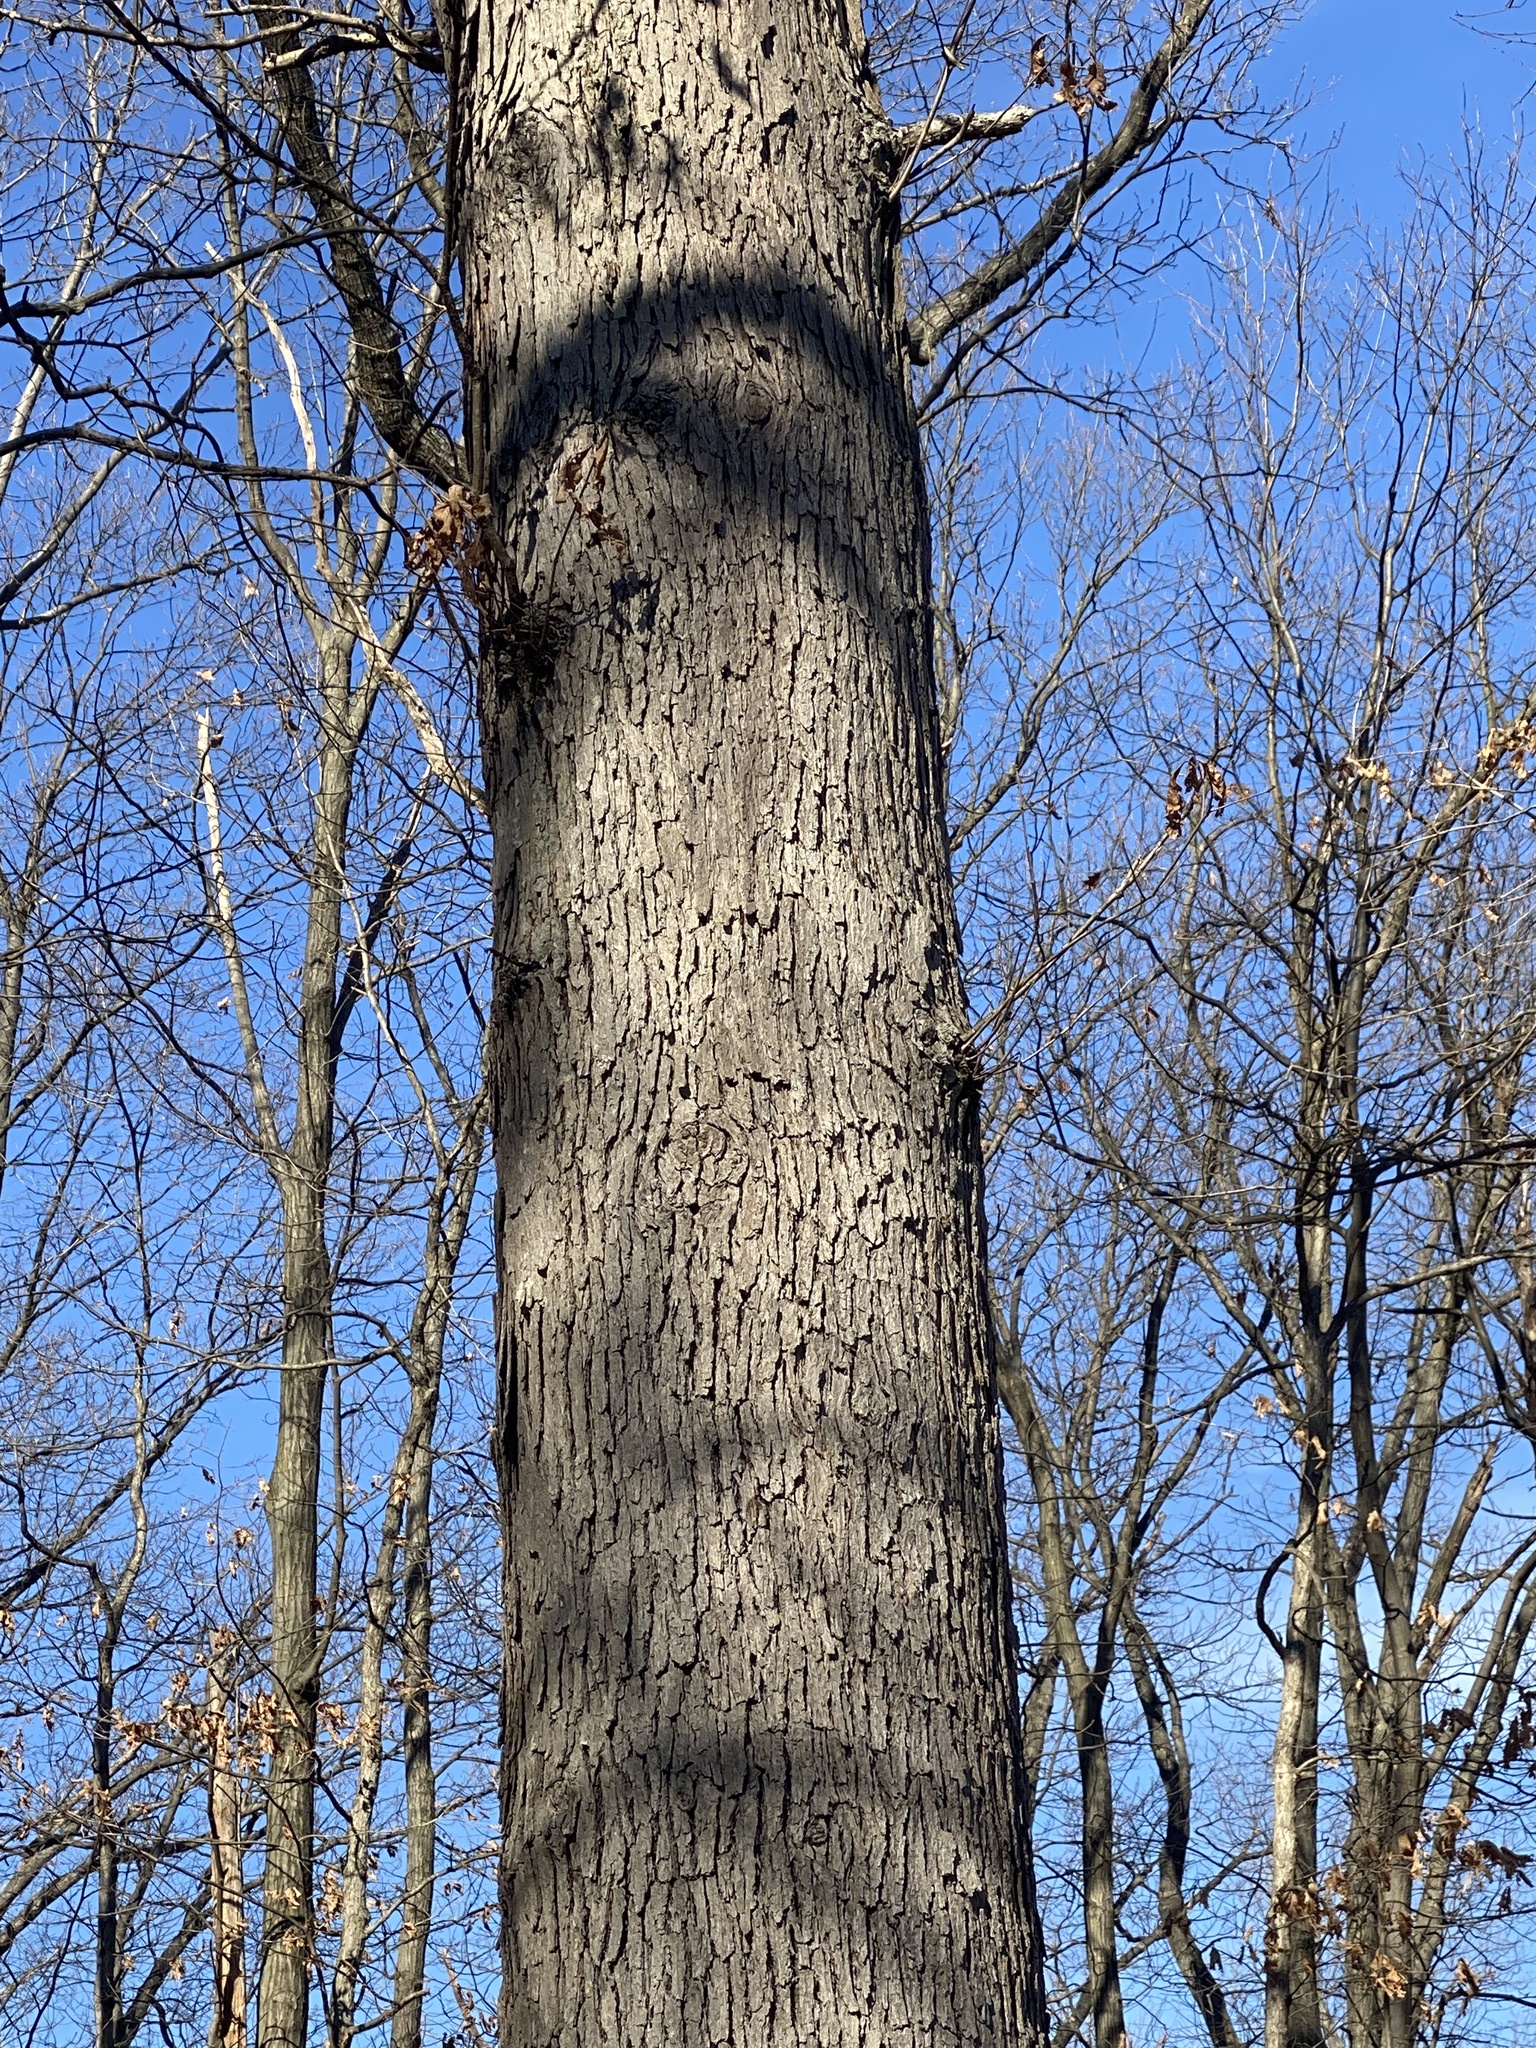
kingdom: Plantae
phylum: Tracheophyta
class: Magnoliopsida
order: Fagales
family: Fagaceae
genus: Quercus
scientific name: Quercus alba
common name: White oak
